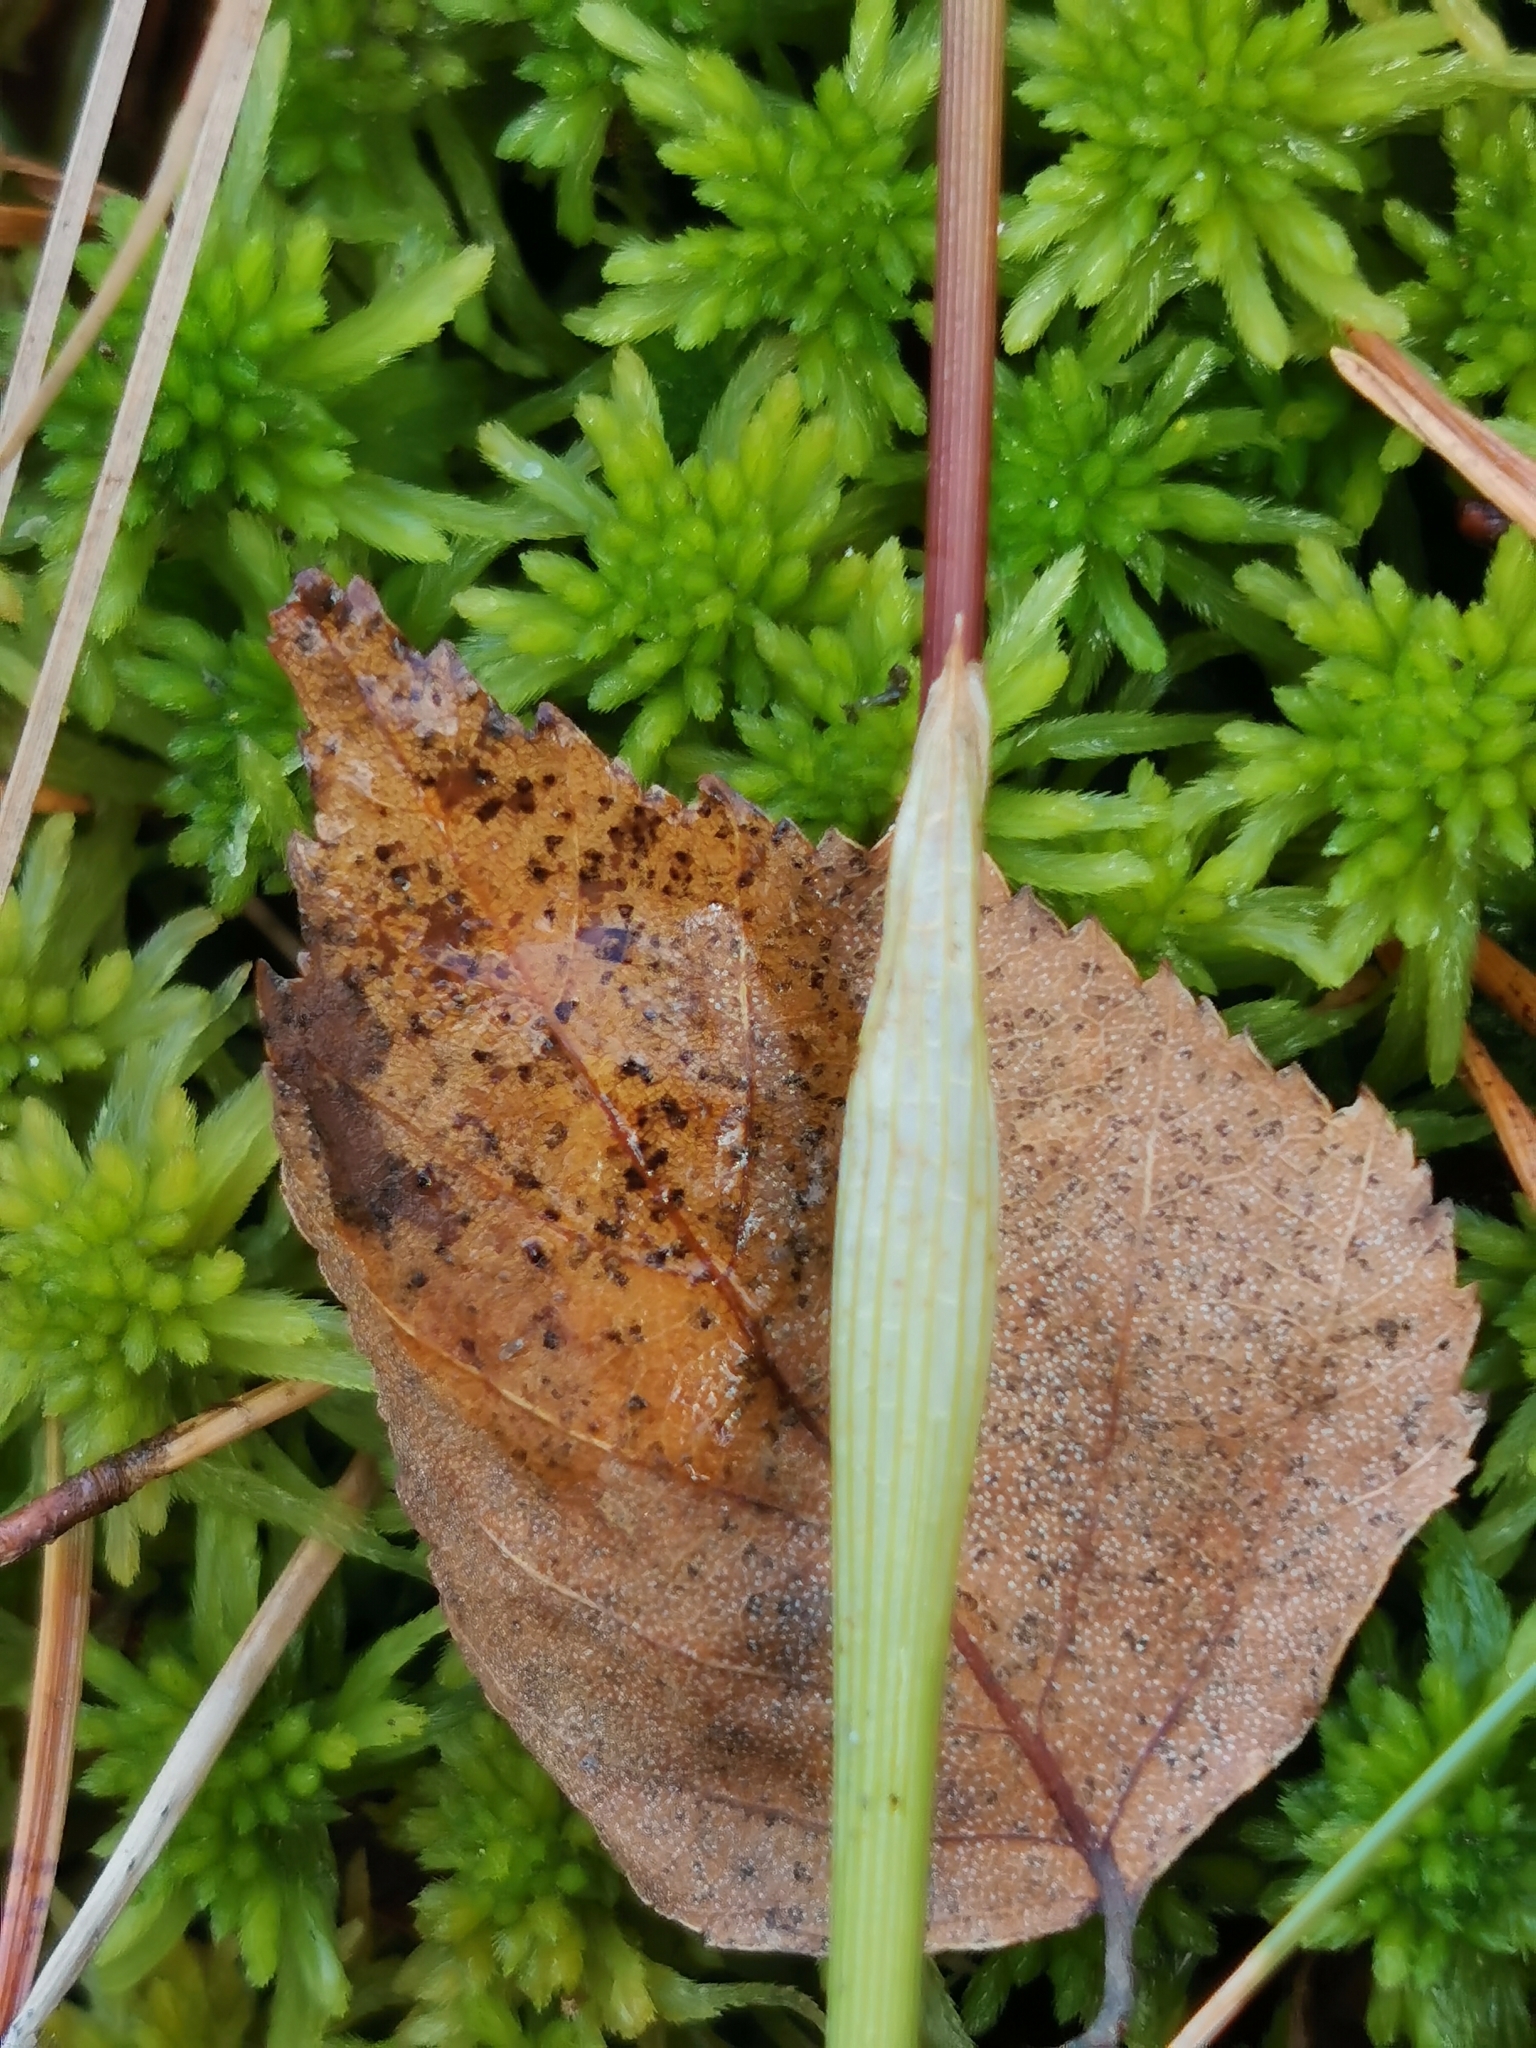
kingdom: Plantae
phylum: Tracheophyta
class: Liliopsida
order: Poales
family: Cyperaceae
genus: Eriophorum
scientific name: Eriophorum vaginatum
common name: Hare's-tail cottongrass
